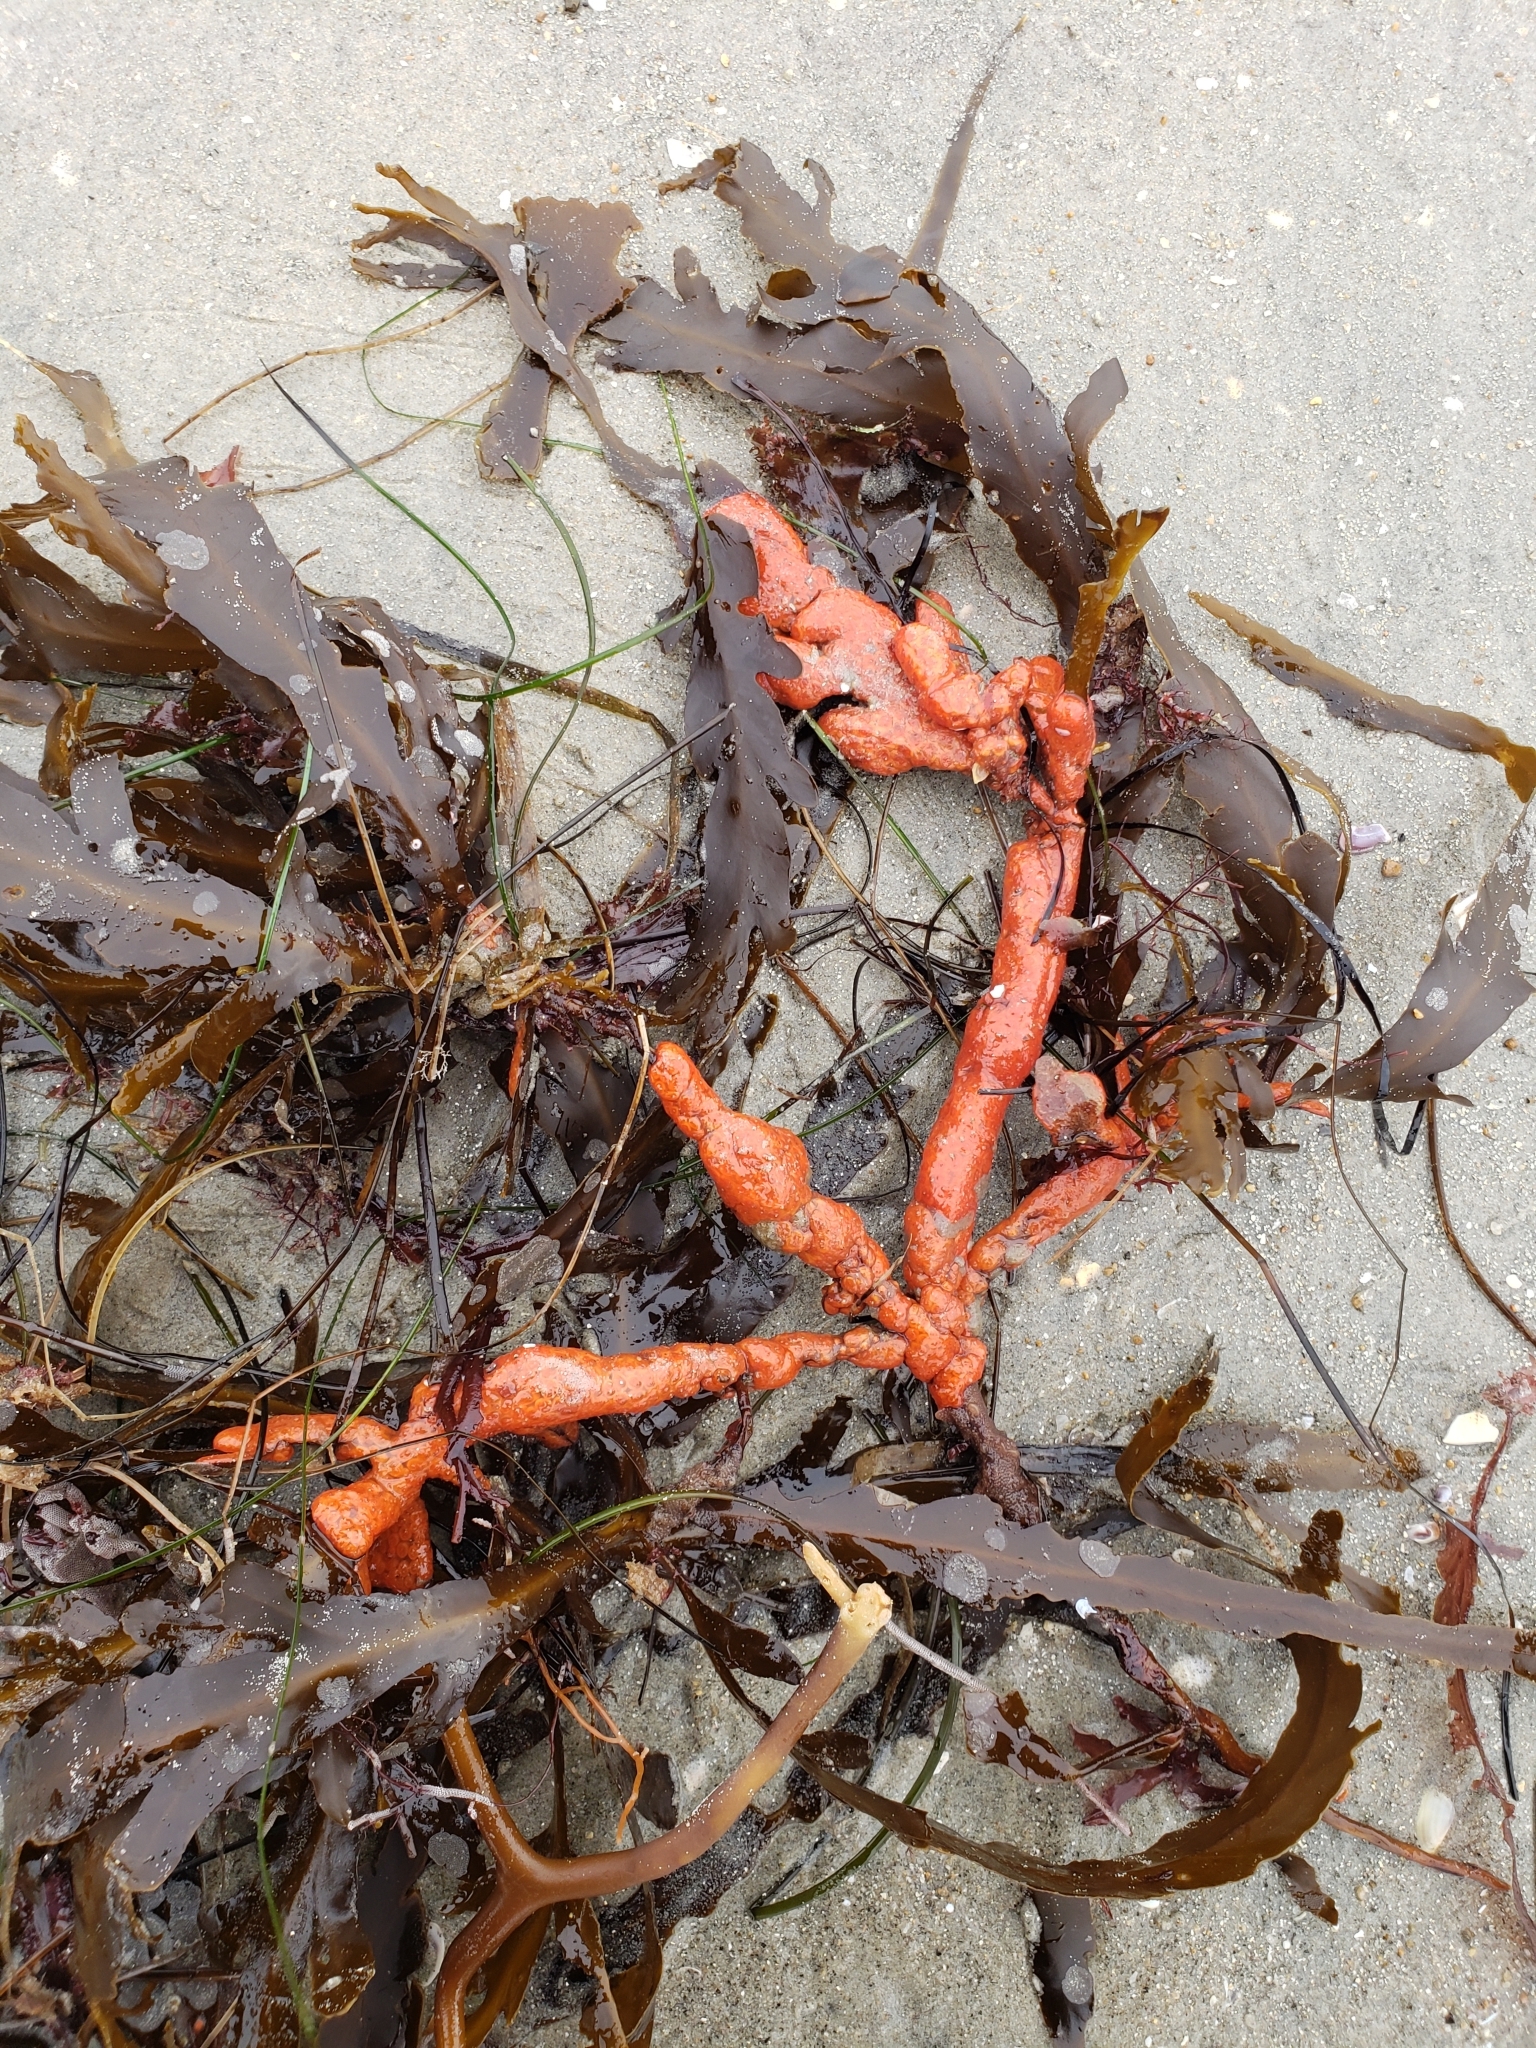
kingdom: Animalia
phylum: Chordata
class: Ascidiacea
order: Stolidobranchia
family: Styelidae
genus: Metandrocarpa
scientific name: Metandrocarpa dura
